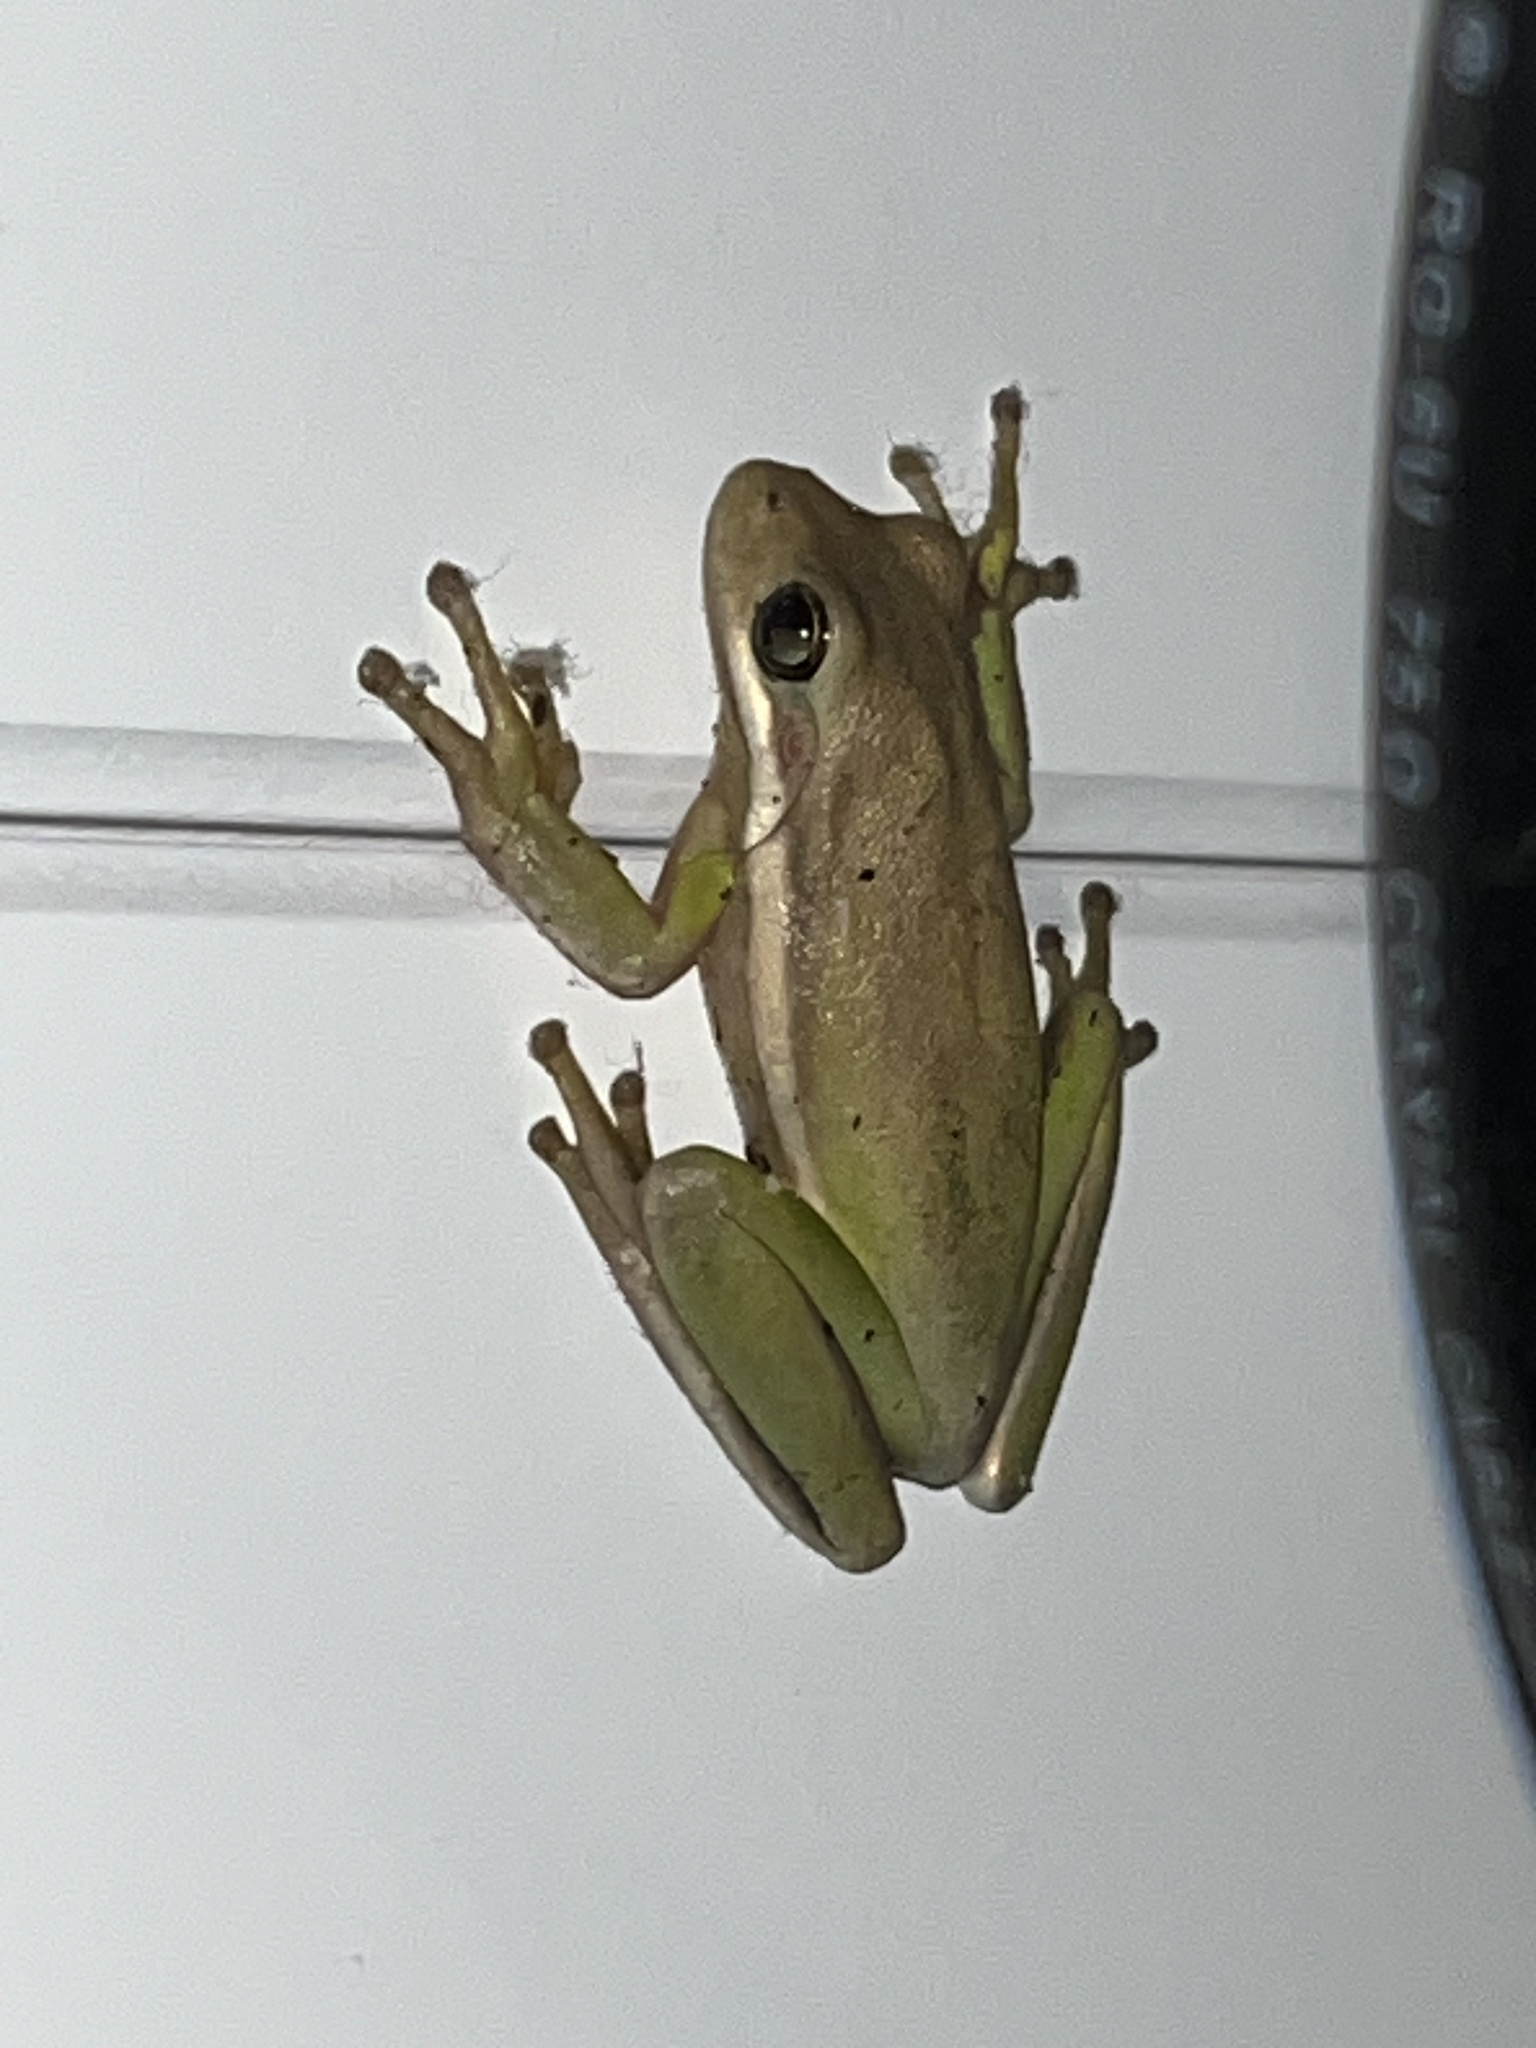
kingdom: Animalia
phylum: Chordata
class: Amphibia
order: Anura
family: Hylidae
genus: Dryophytes
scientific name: Dryophytes cinereus
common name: Green treefrog
